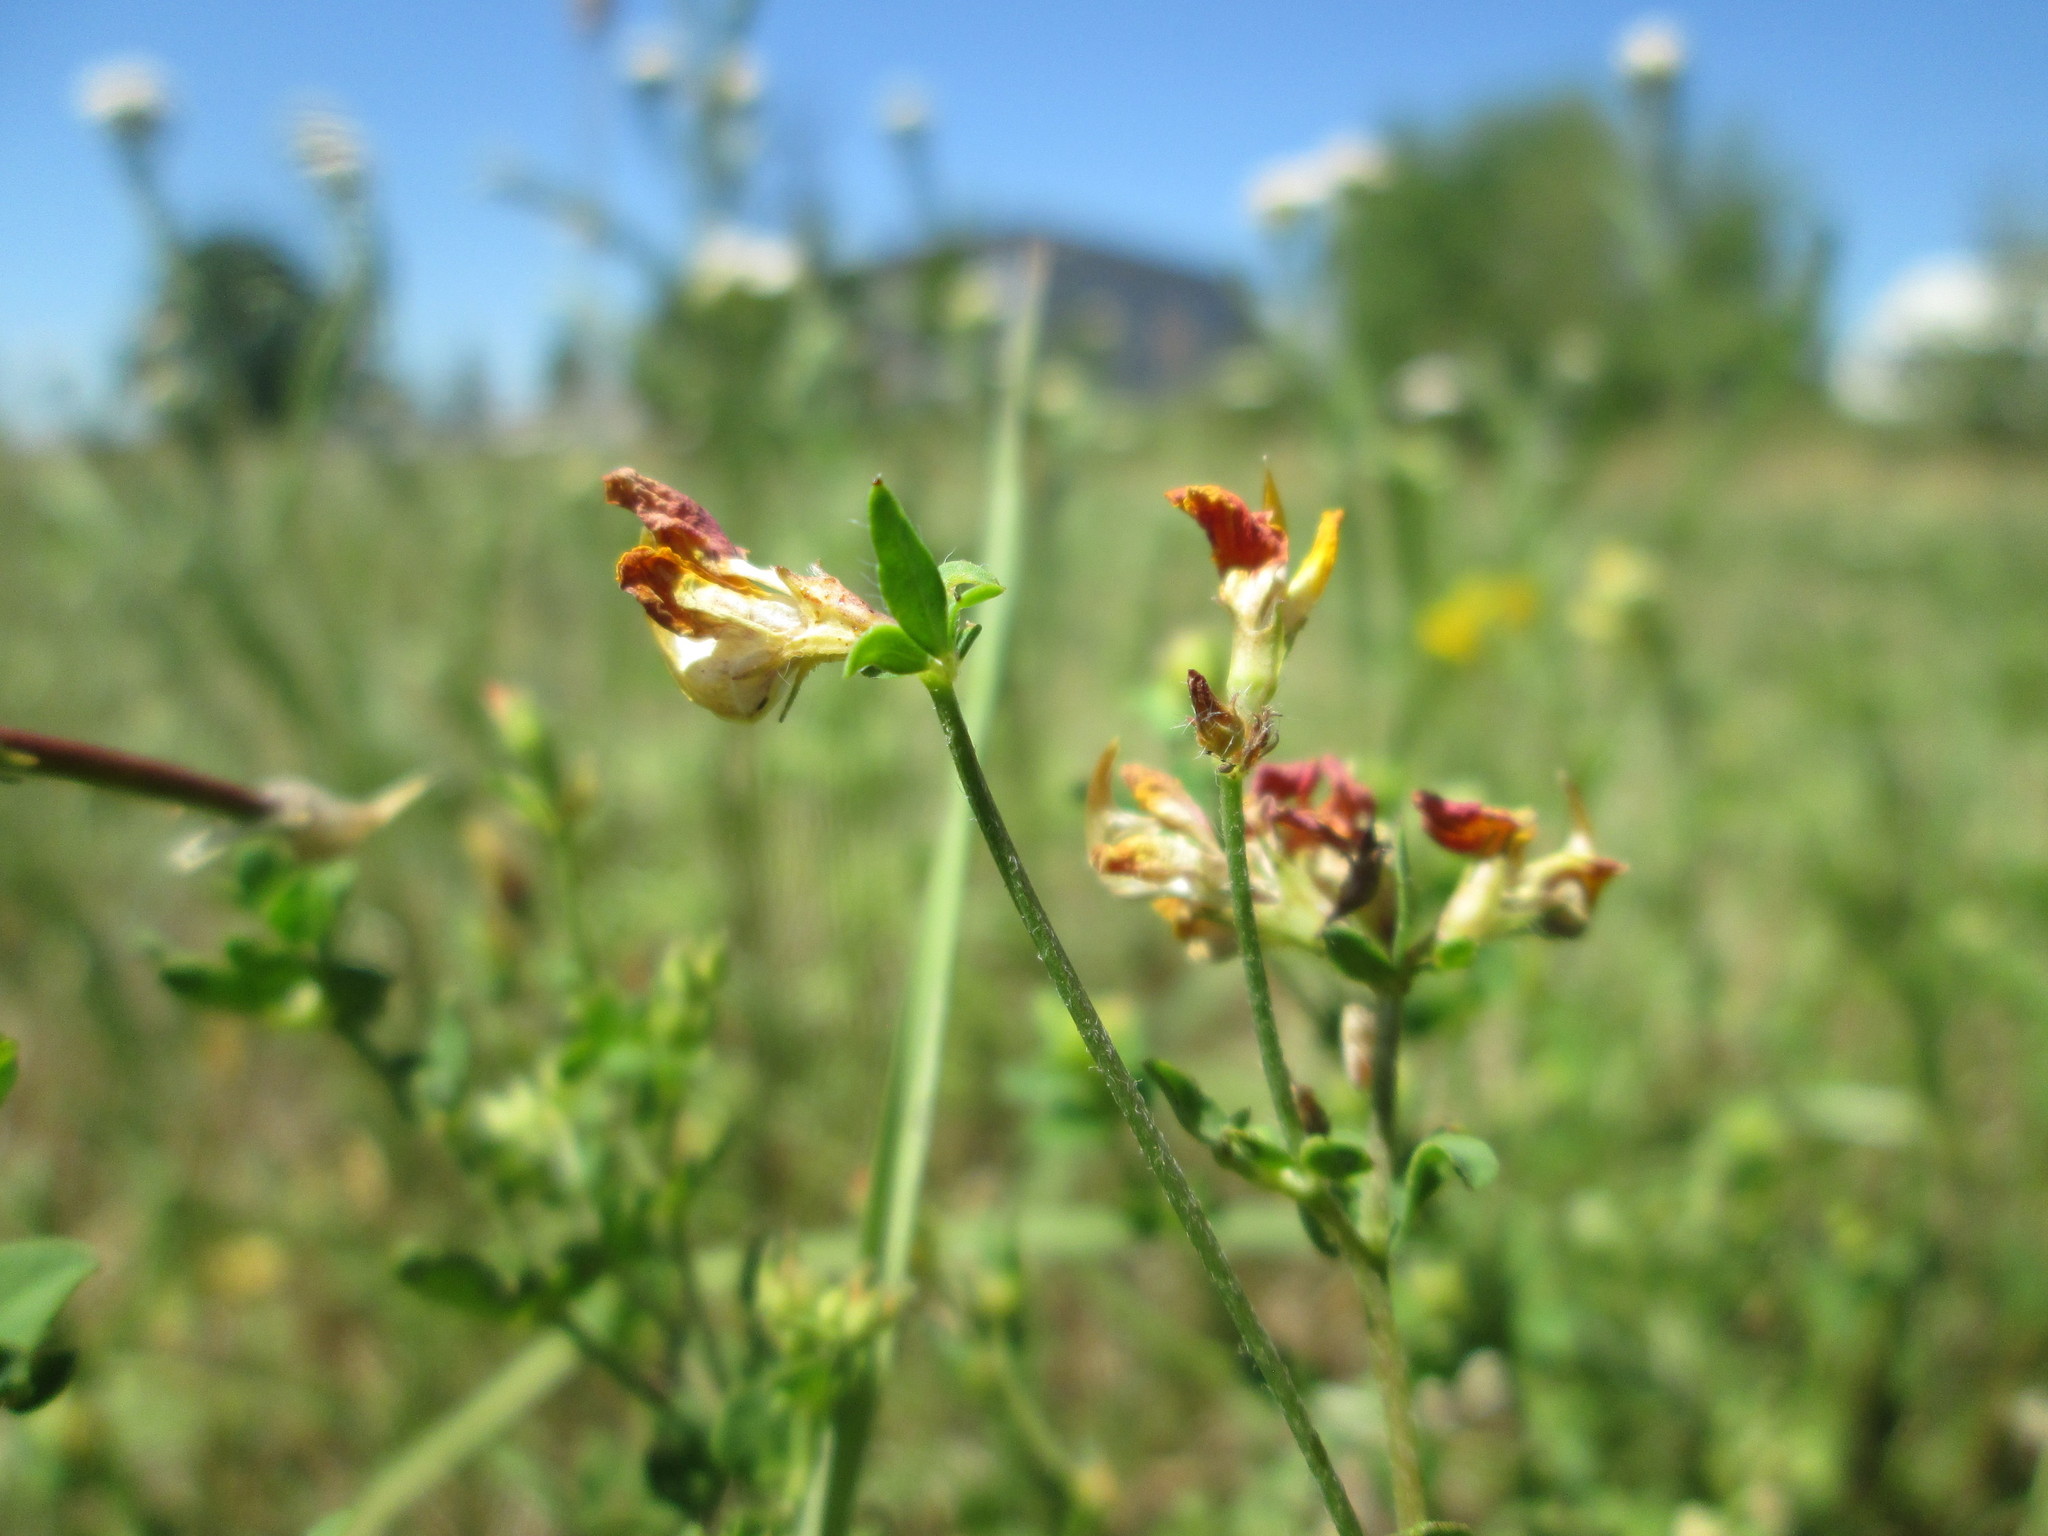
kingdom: Plantae
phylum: Tracheophyta
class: Magnoliopsida
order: Fabales
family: Fabaceae
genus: Lotus
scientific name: Lotus corniculatus
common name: Common bird's-foot-trefoil
